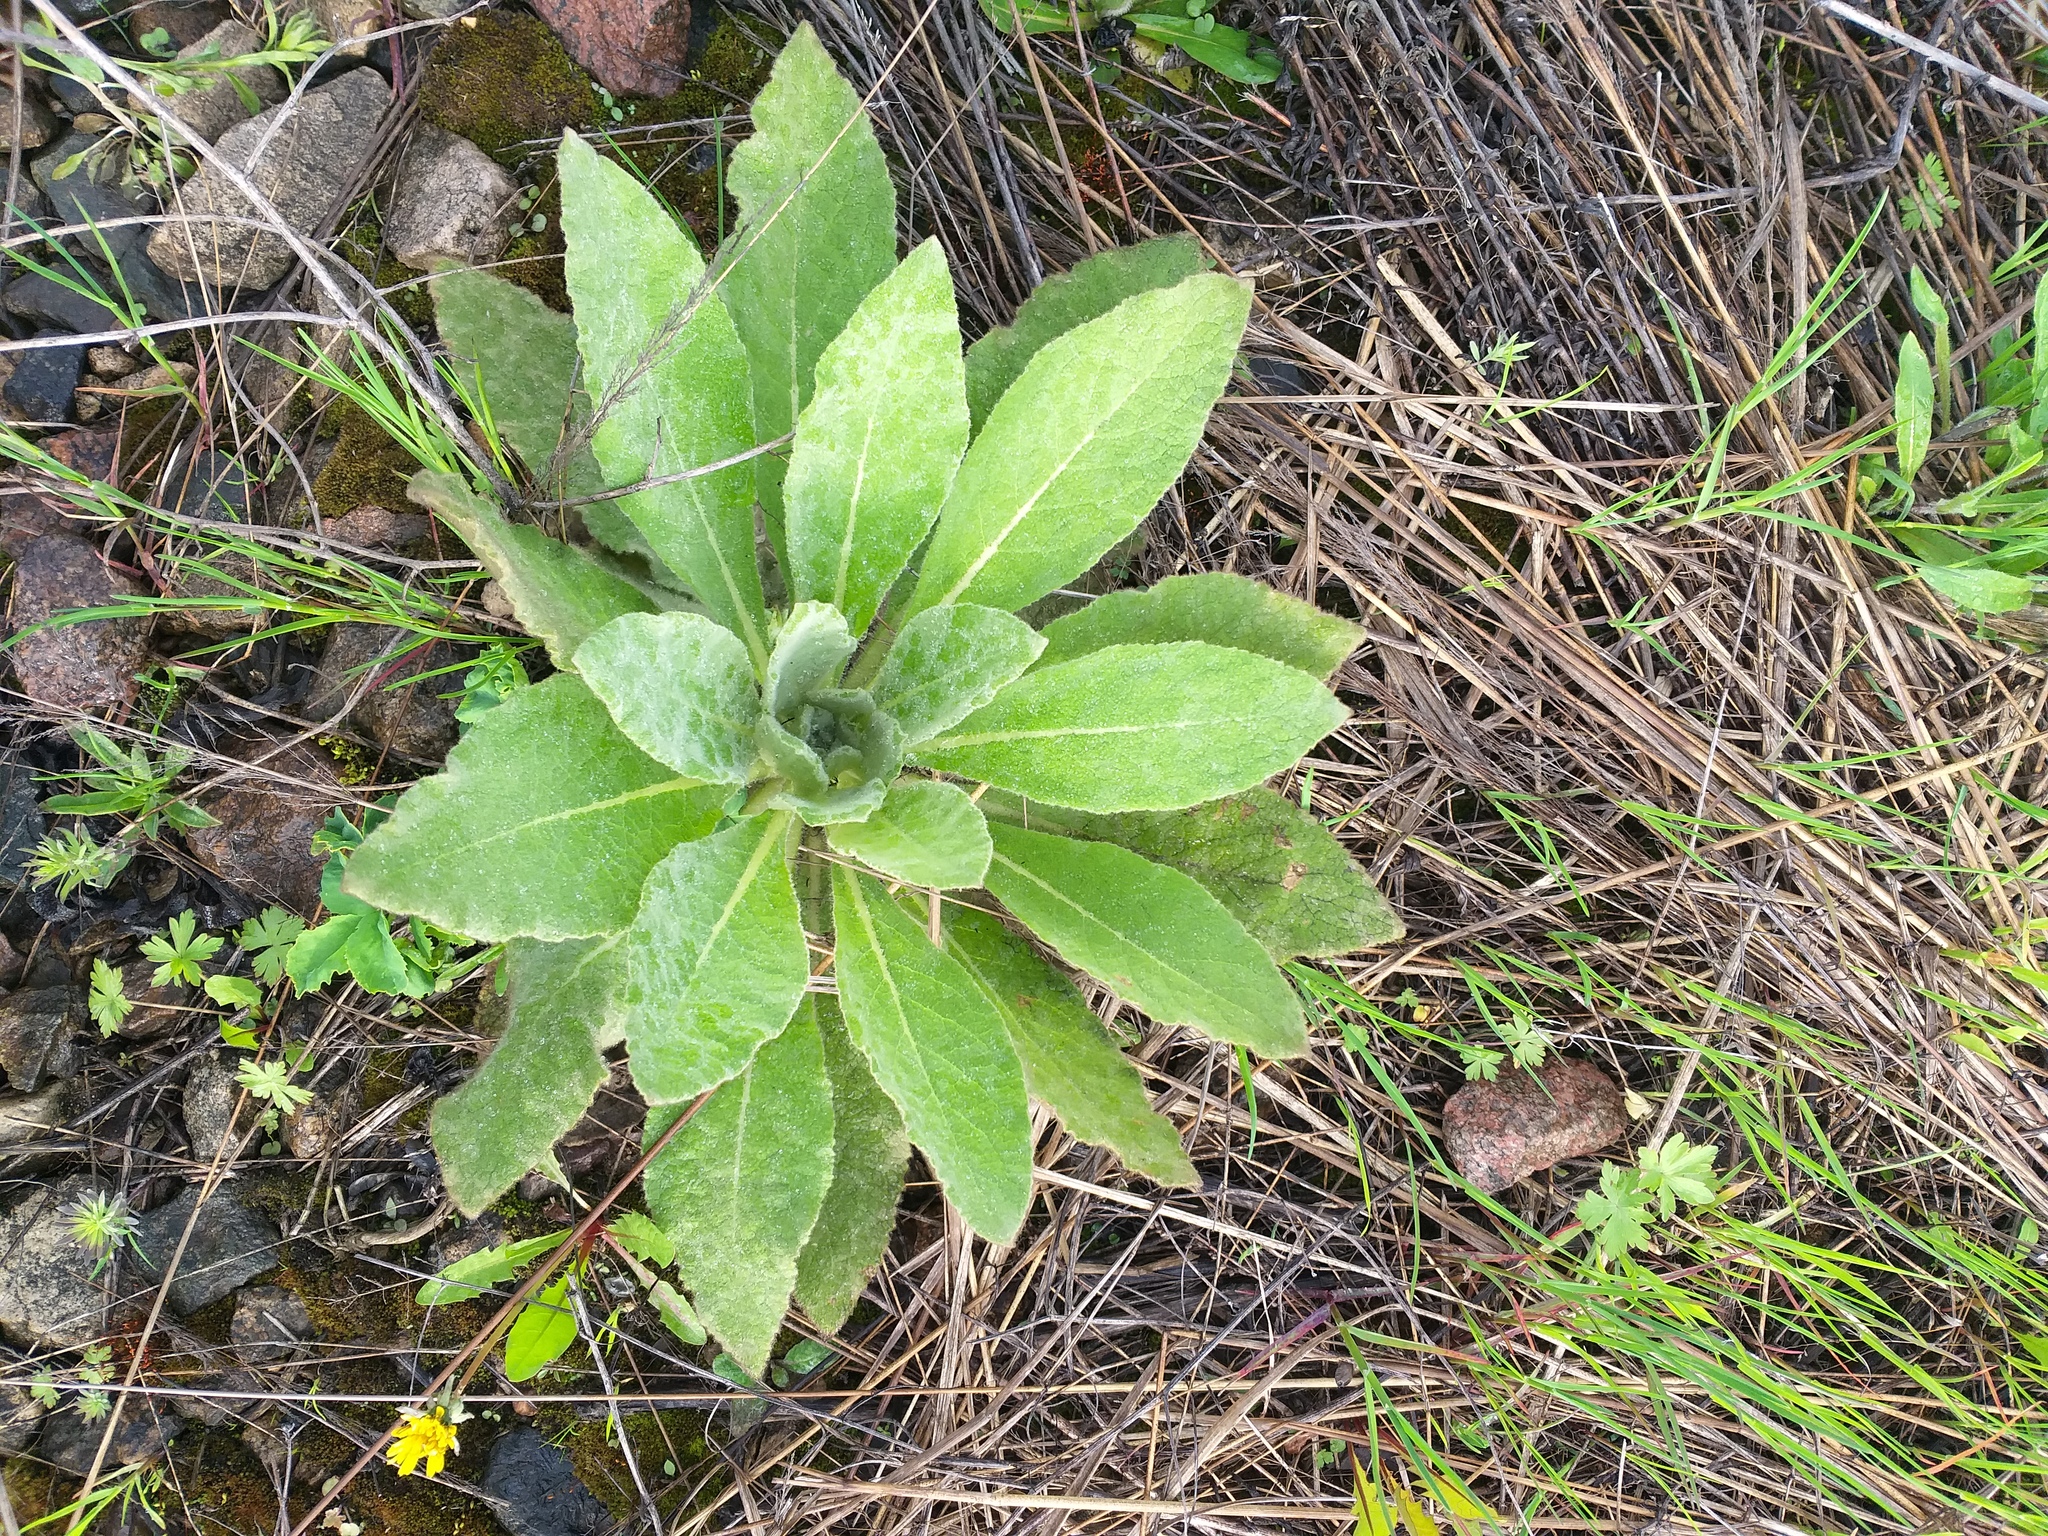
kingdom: Plantae
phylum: Tracheophyta
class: Magnoliopsida
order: Lamiales
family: Scrophulariaceae
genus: Verbascum
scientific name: Verbascum thapsus
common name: Common mullein
